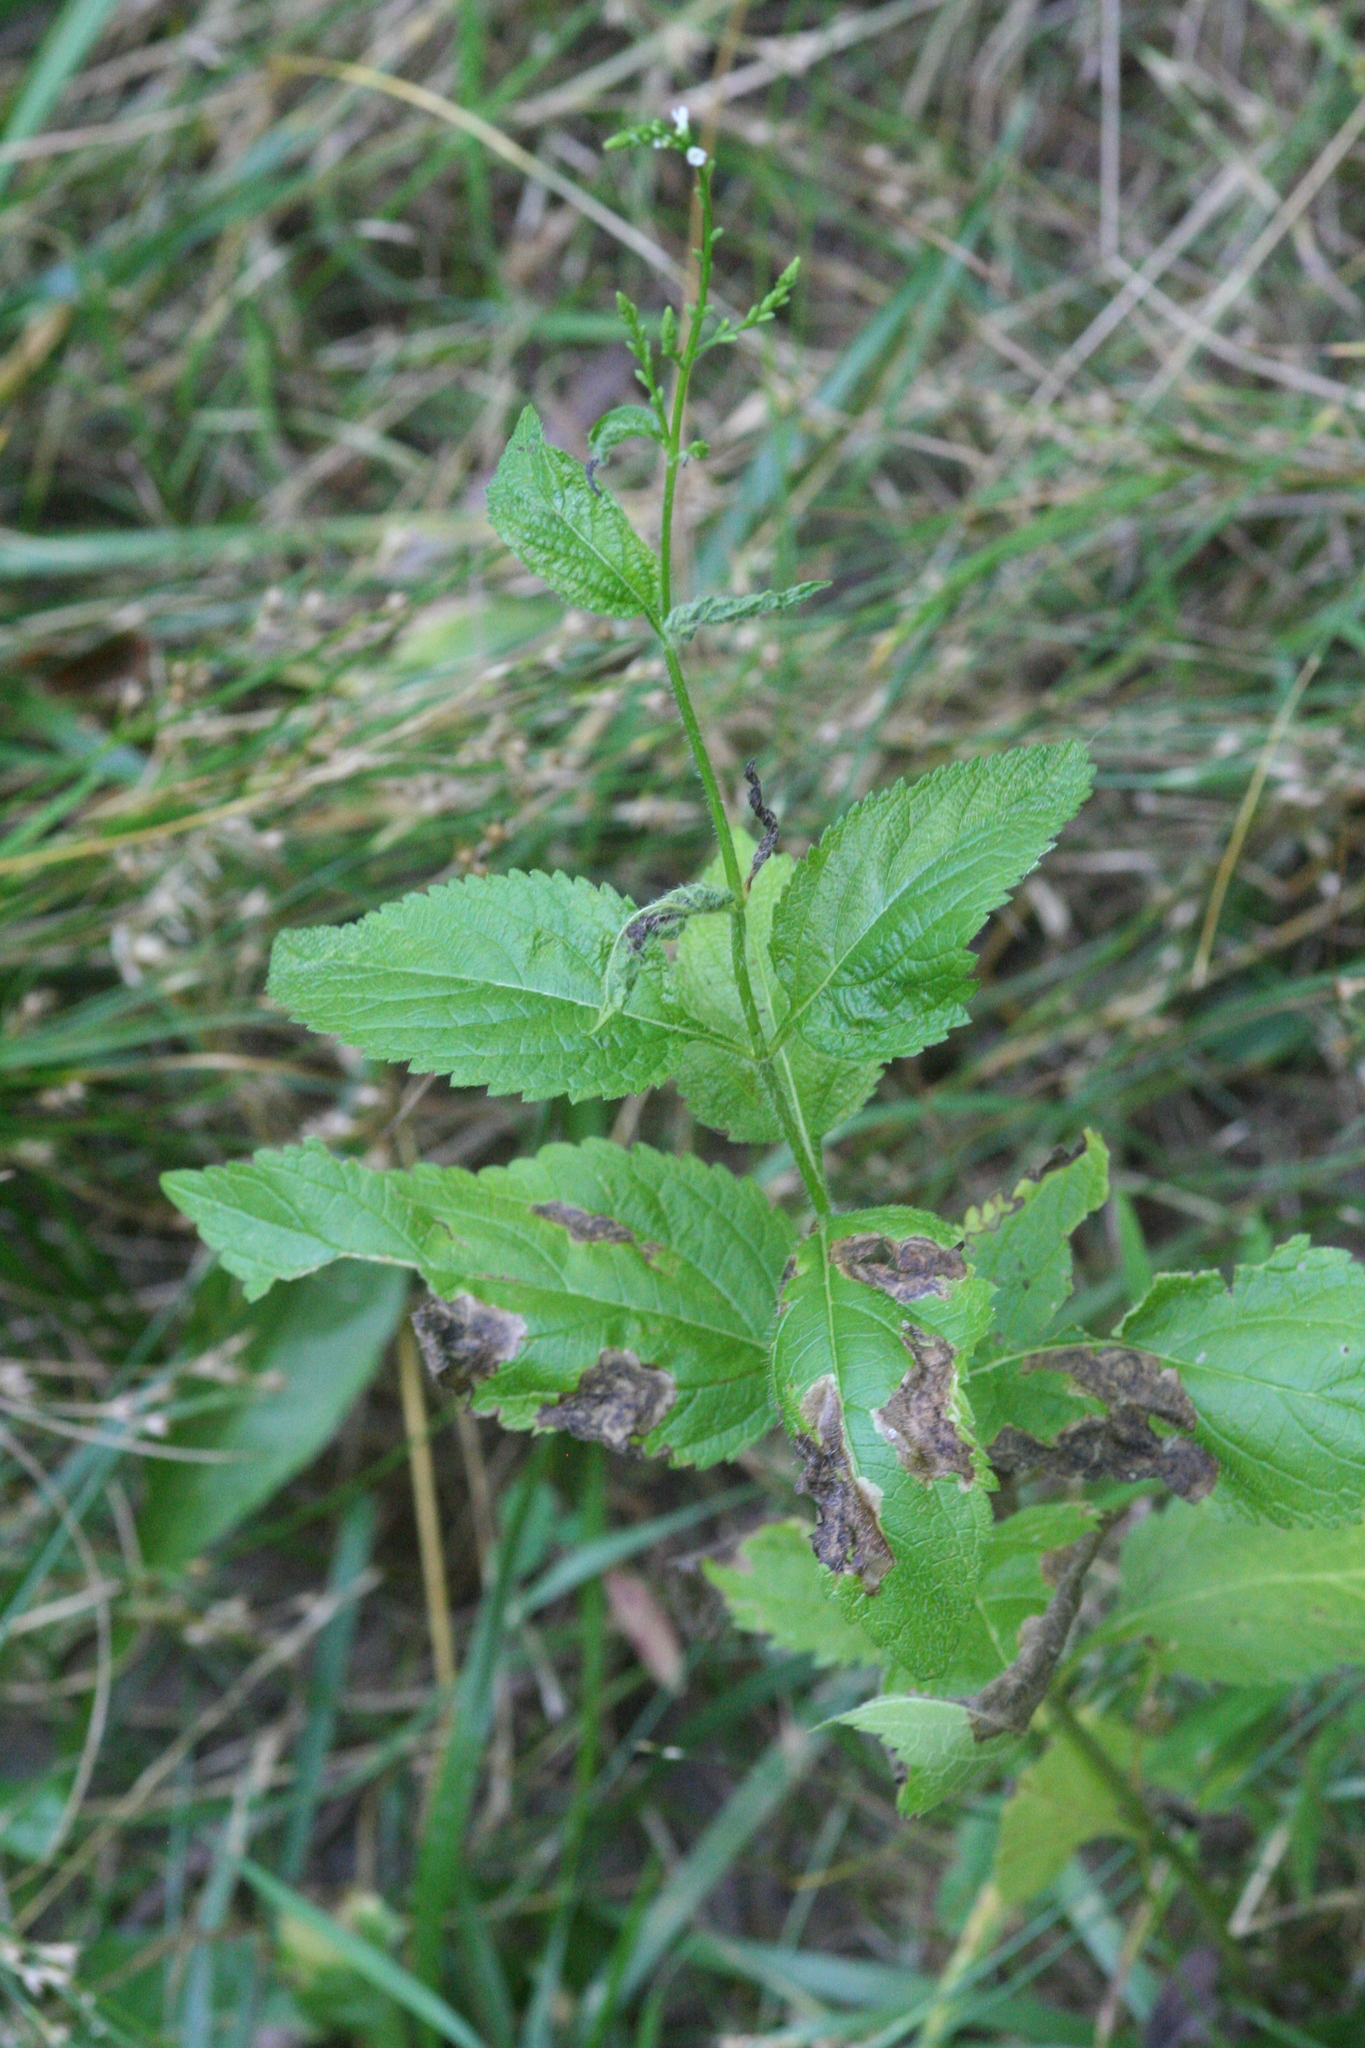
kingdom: Plantae
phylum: Tracheophyta
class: Magnoliopsida
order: Lamiales
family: Verbenaceae
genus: Verbena
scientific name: Verbena urticifolia
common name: Nettle-leaved vervain
